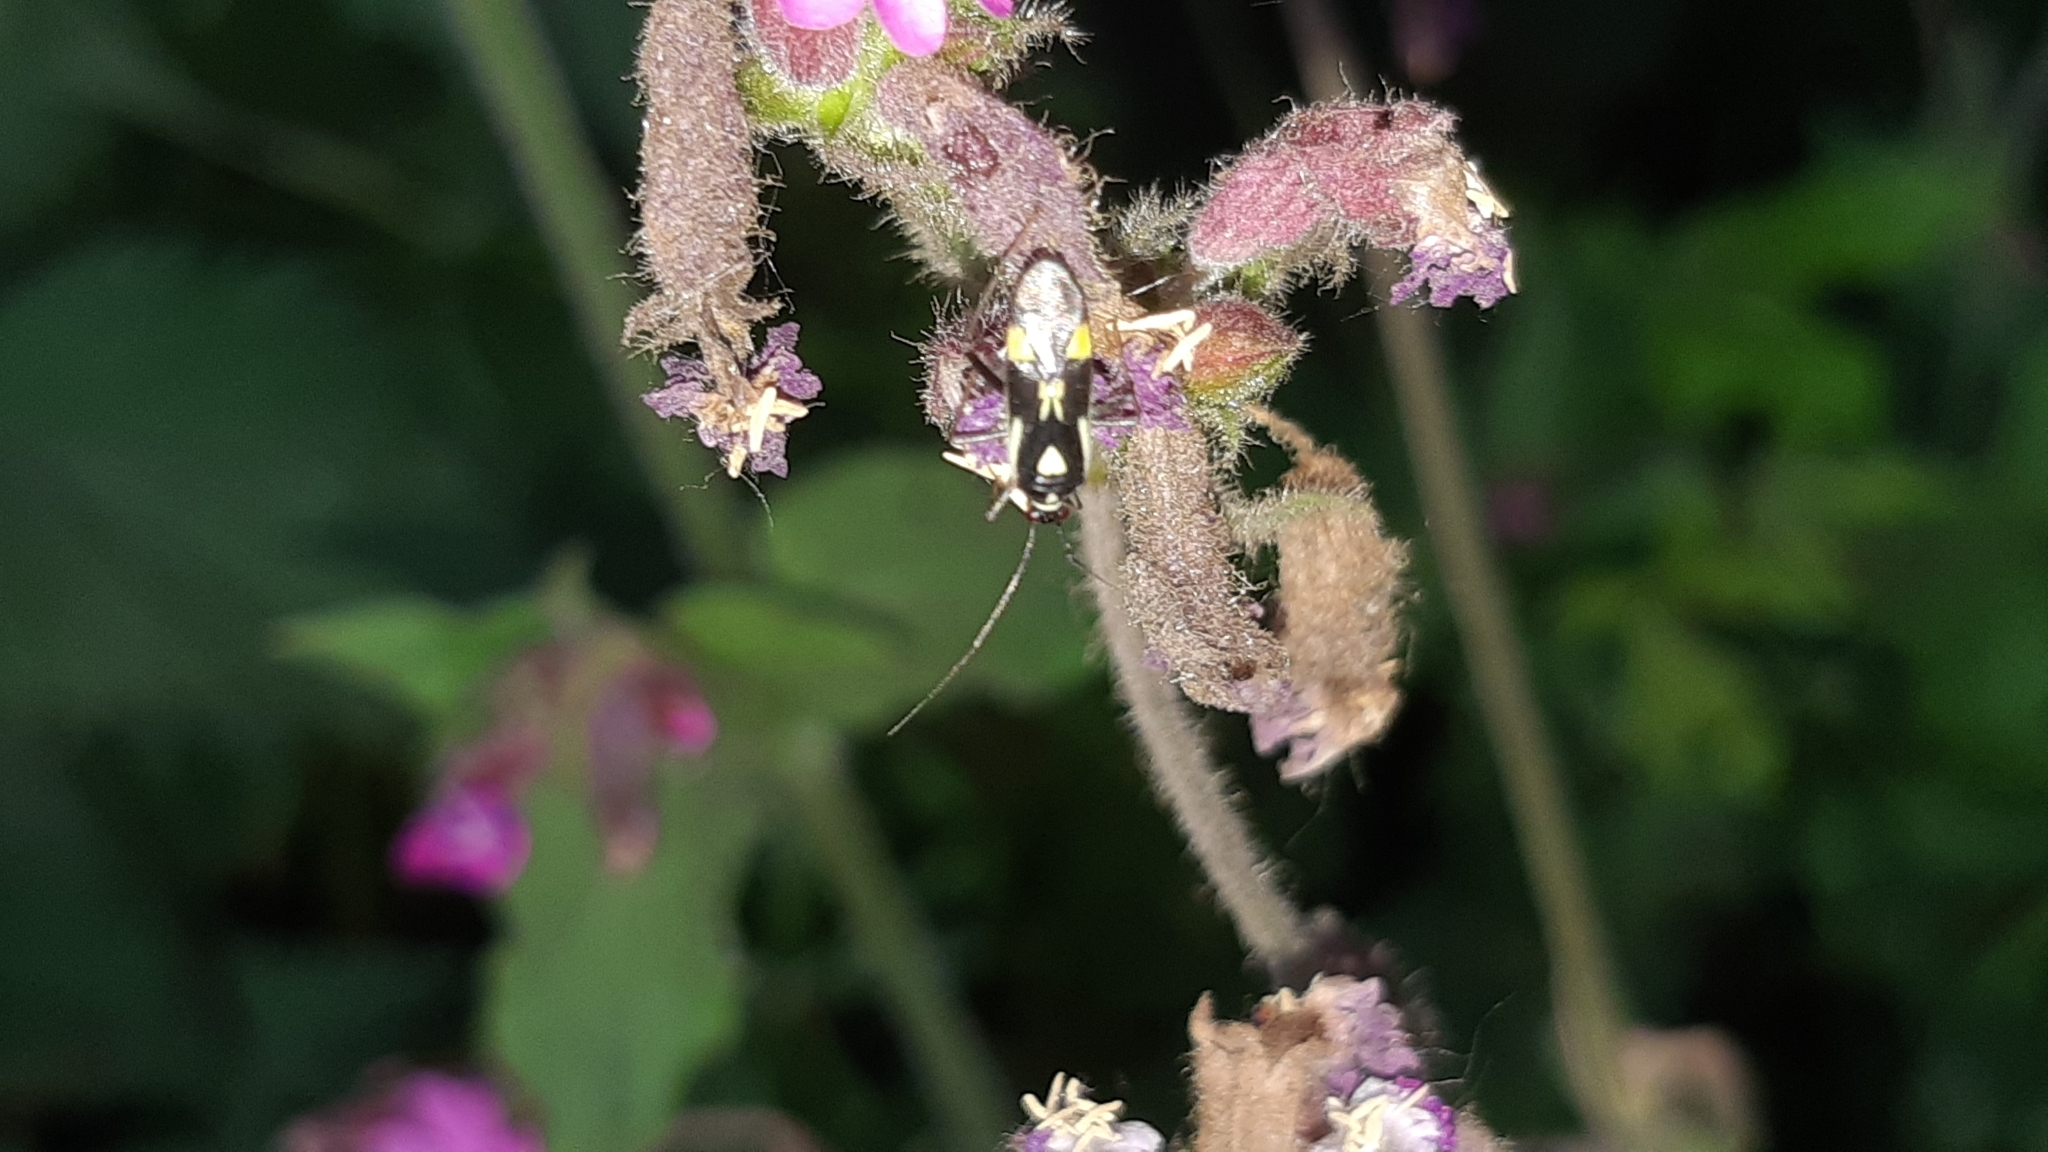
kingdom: Animalia
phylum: Arthropoda
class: Insecta
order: Hemiptera
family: Miridae
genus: Grypocoris
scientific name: Grypocoris stysi
